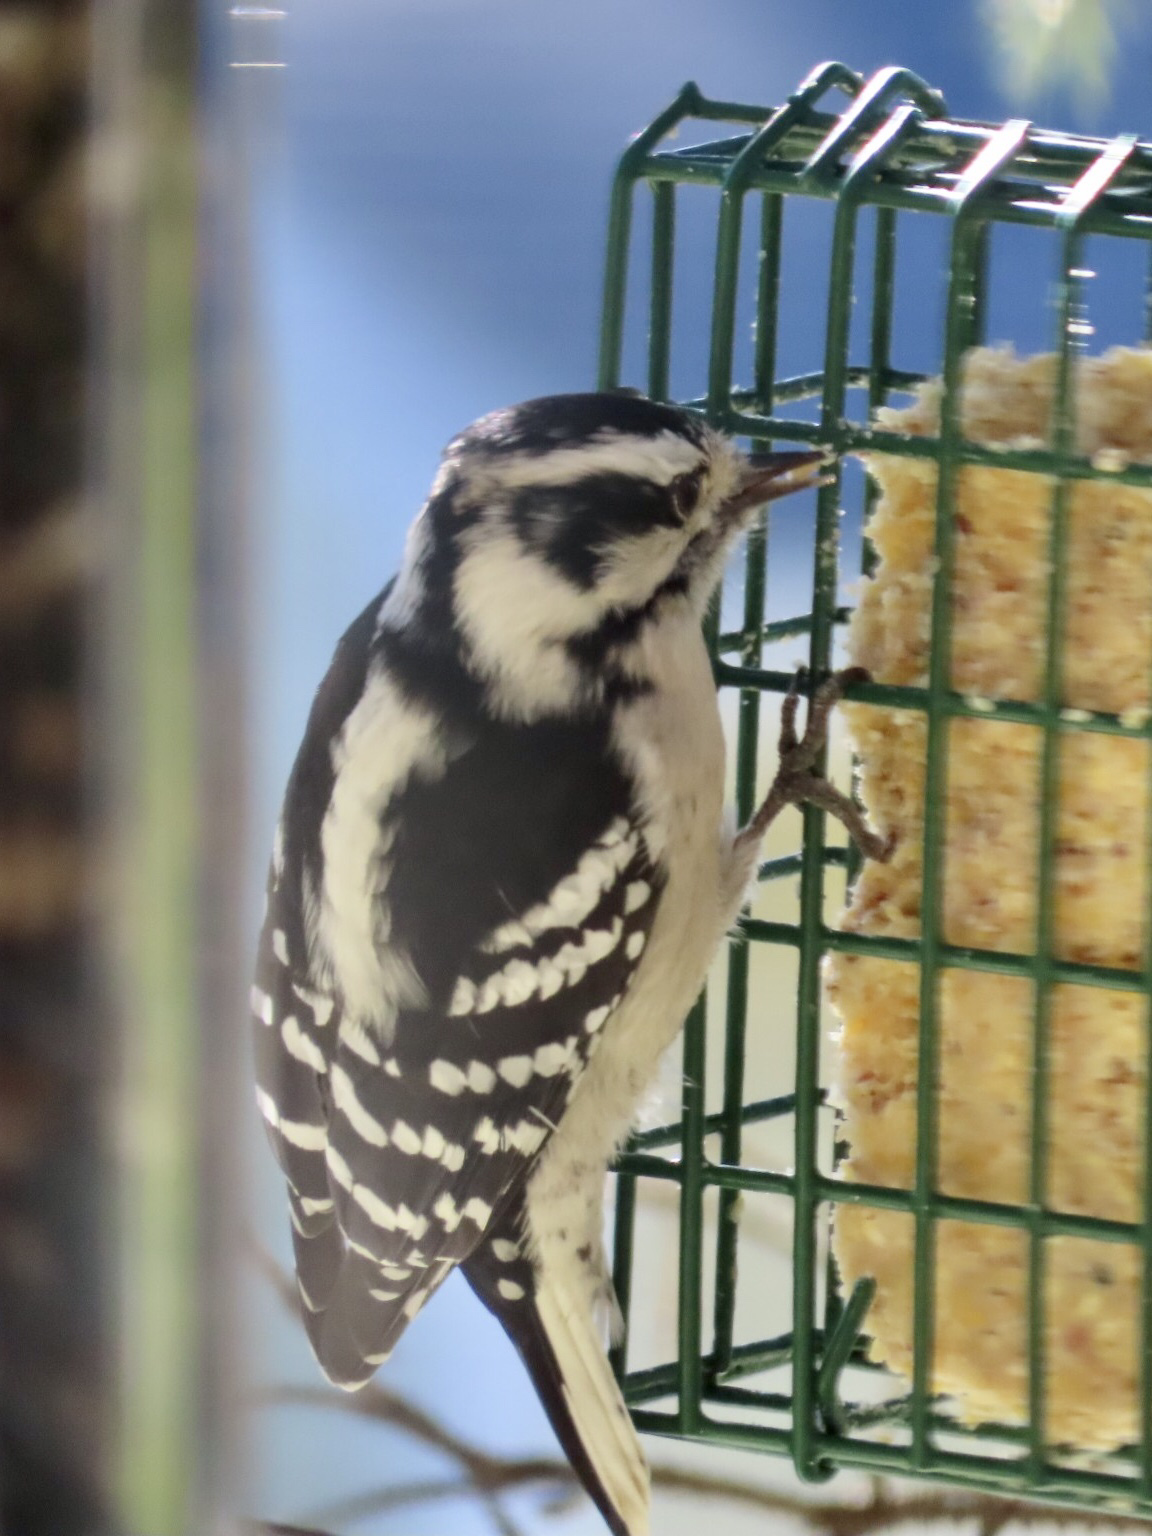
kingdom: Animalia
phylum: Chordata
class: Aves
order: Piciformes
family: Picidae
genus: Dryobates
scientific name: Dryobates pubescens
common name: Downy woodpecker
